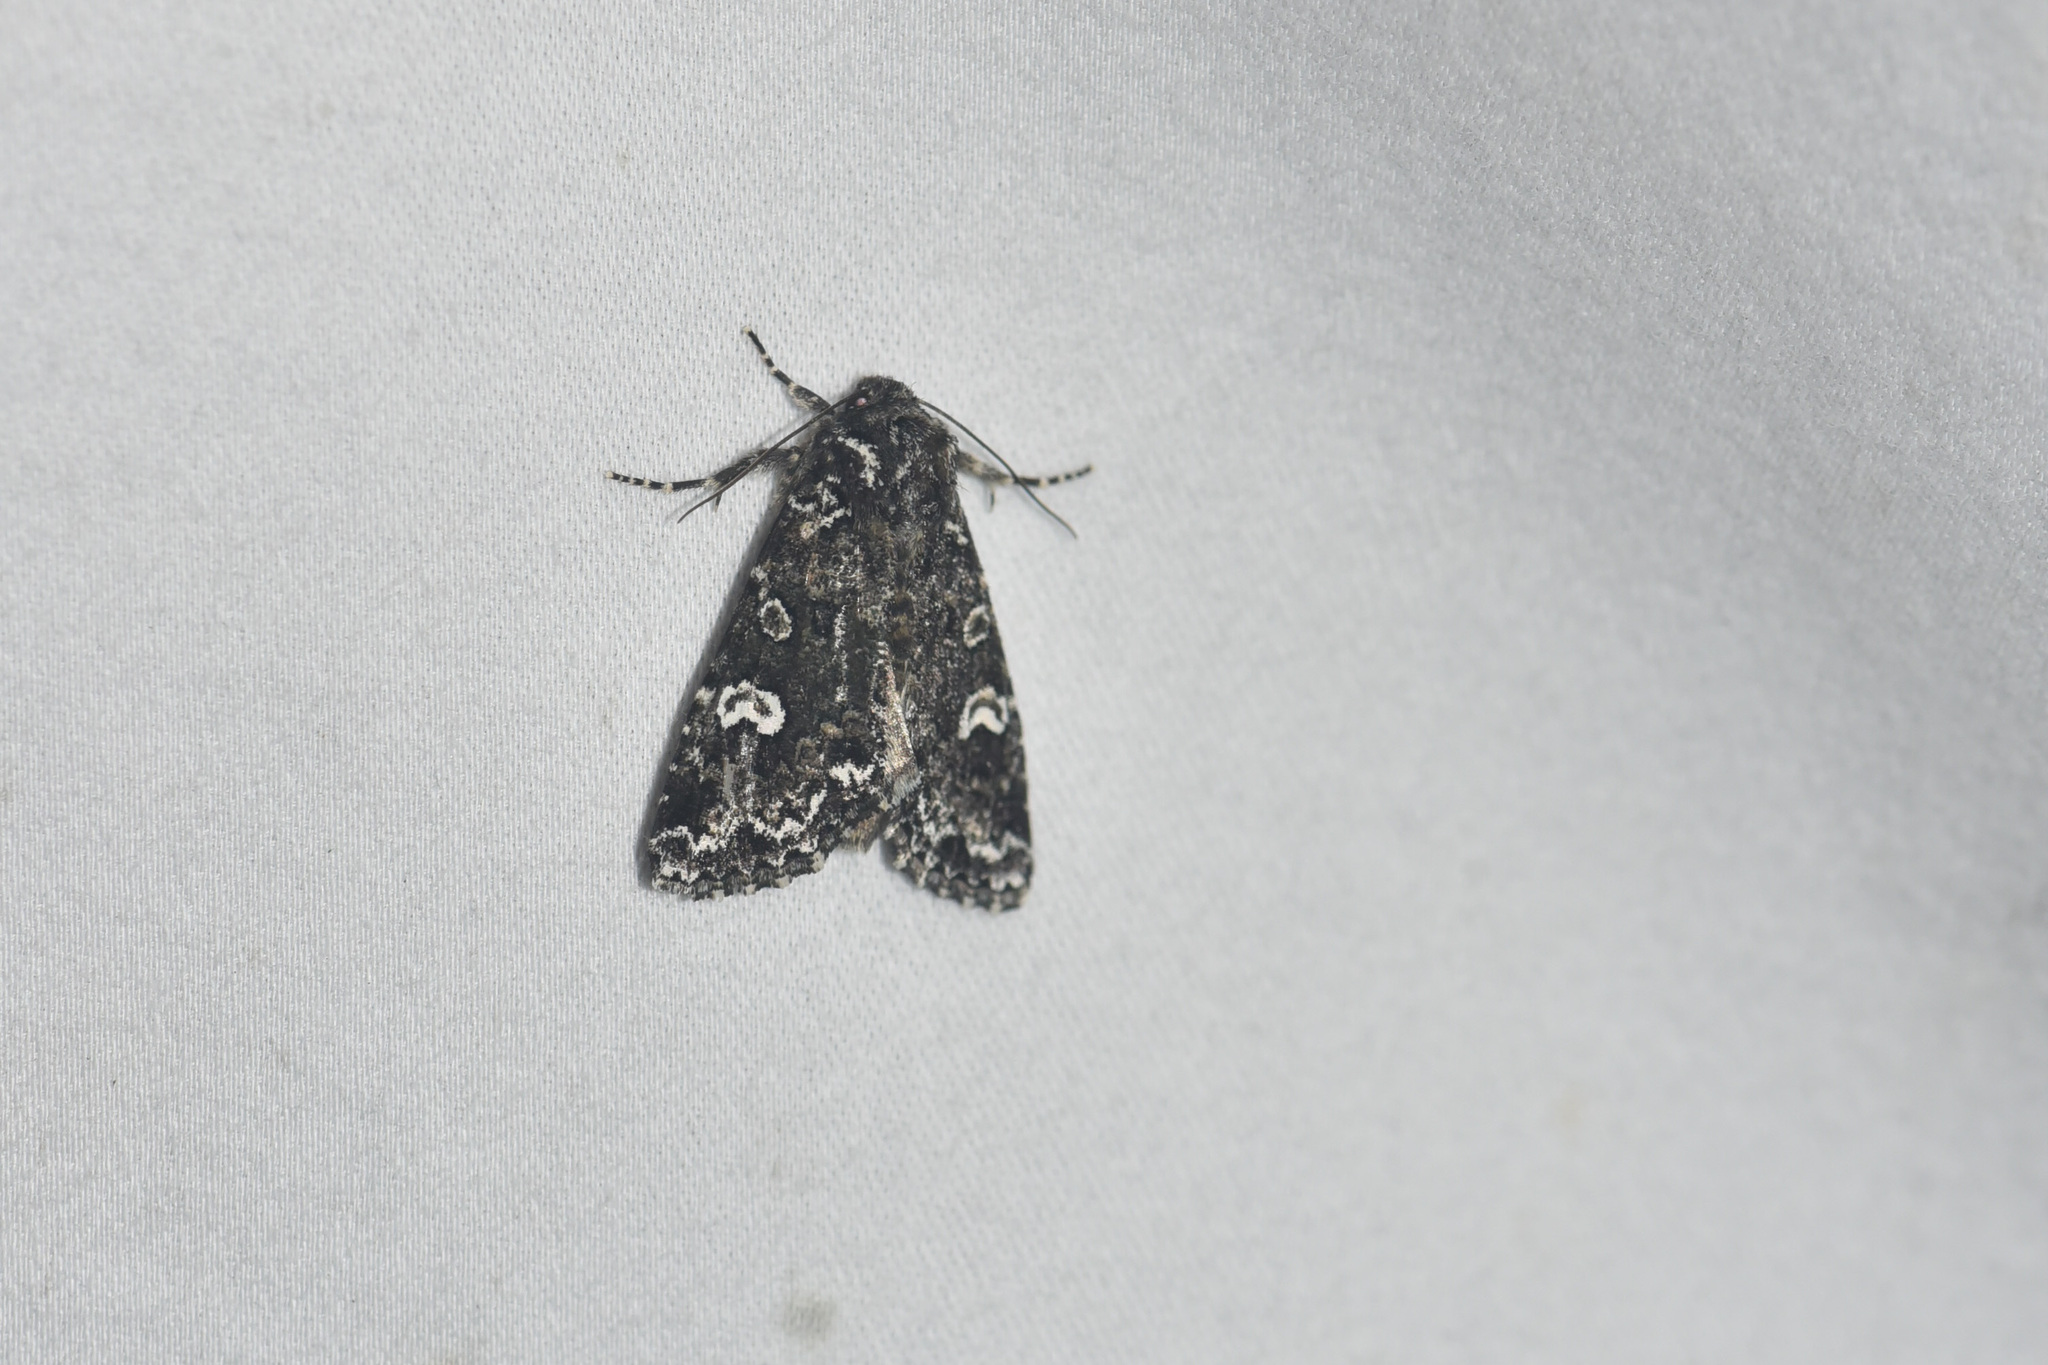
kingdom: Animalia
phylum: Arthropoda
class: Insecta
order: Lepidoptera
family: Noctuidae
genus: Melanchra
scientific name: Melanchra adjuncta
